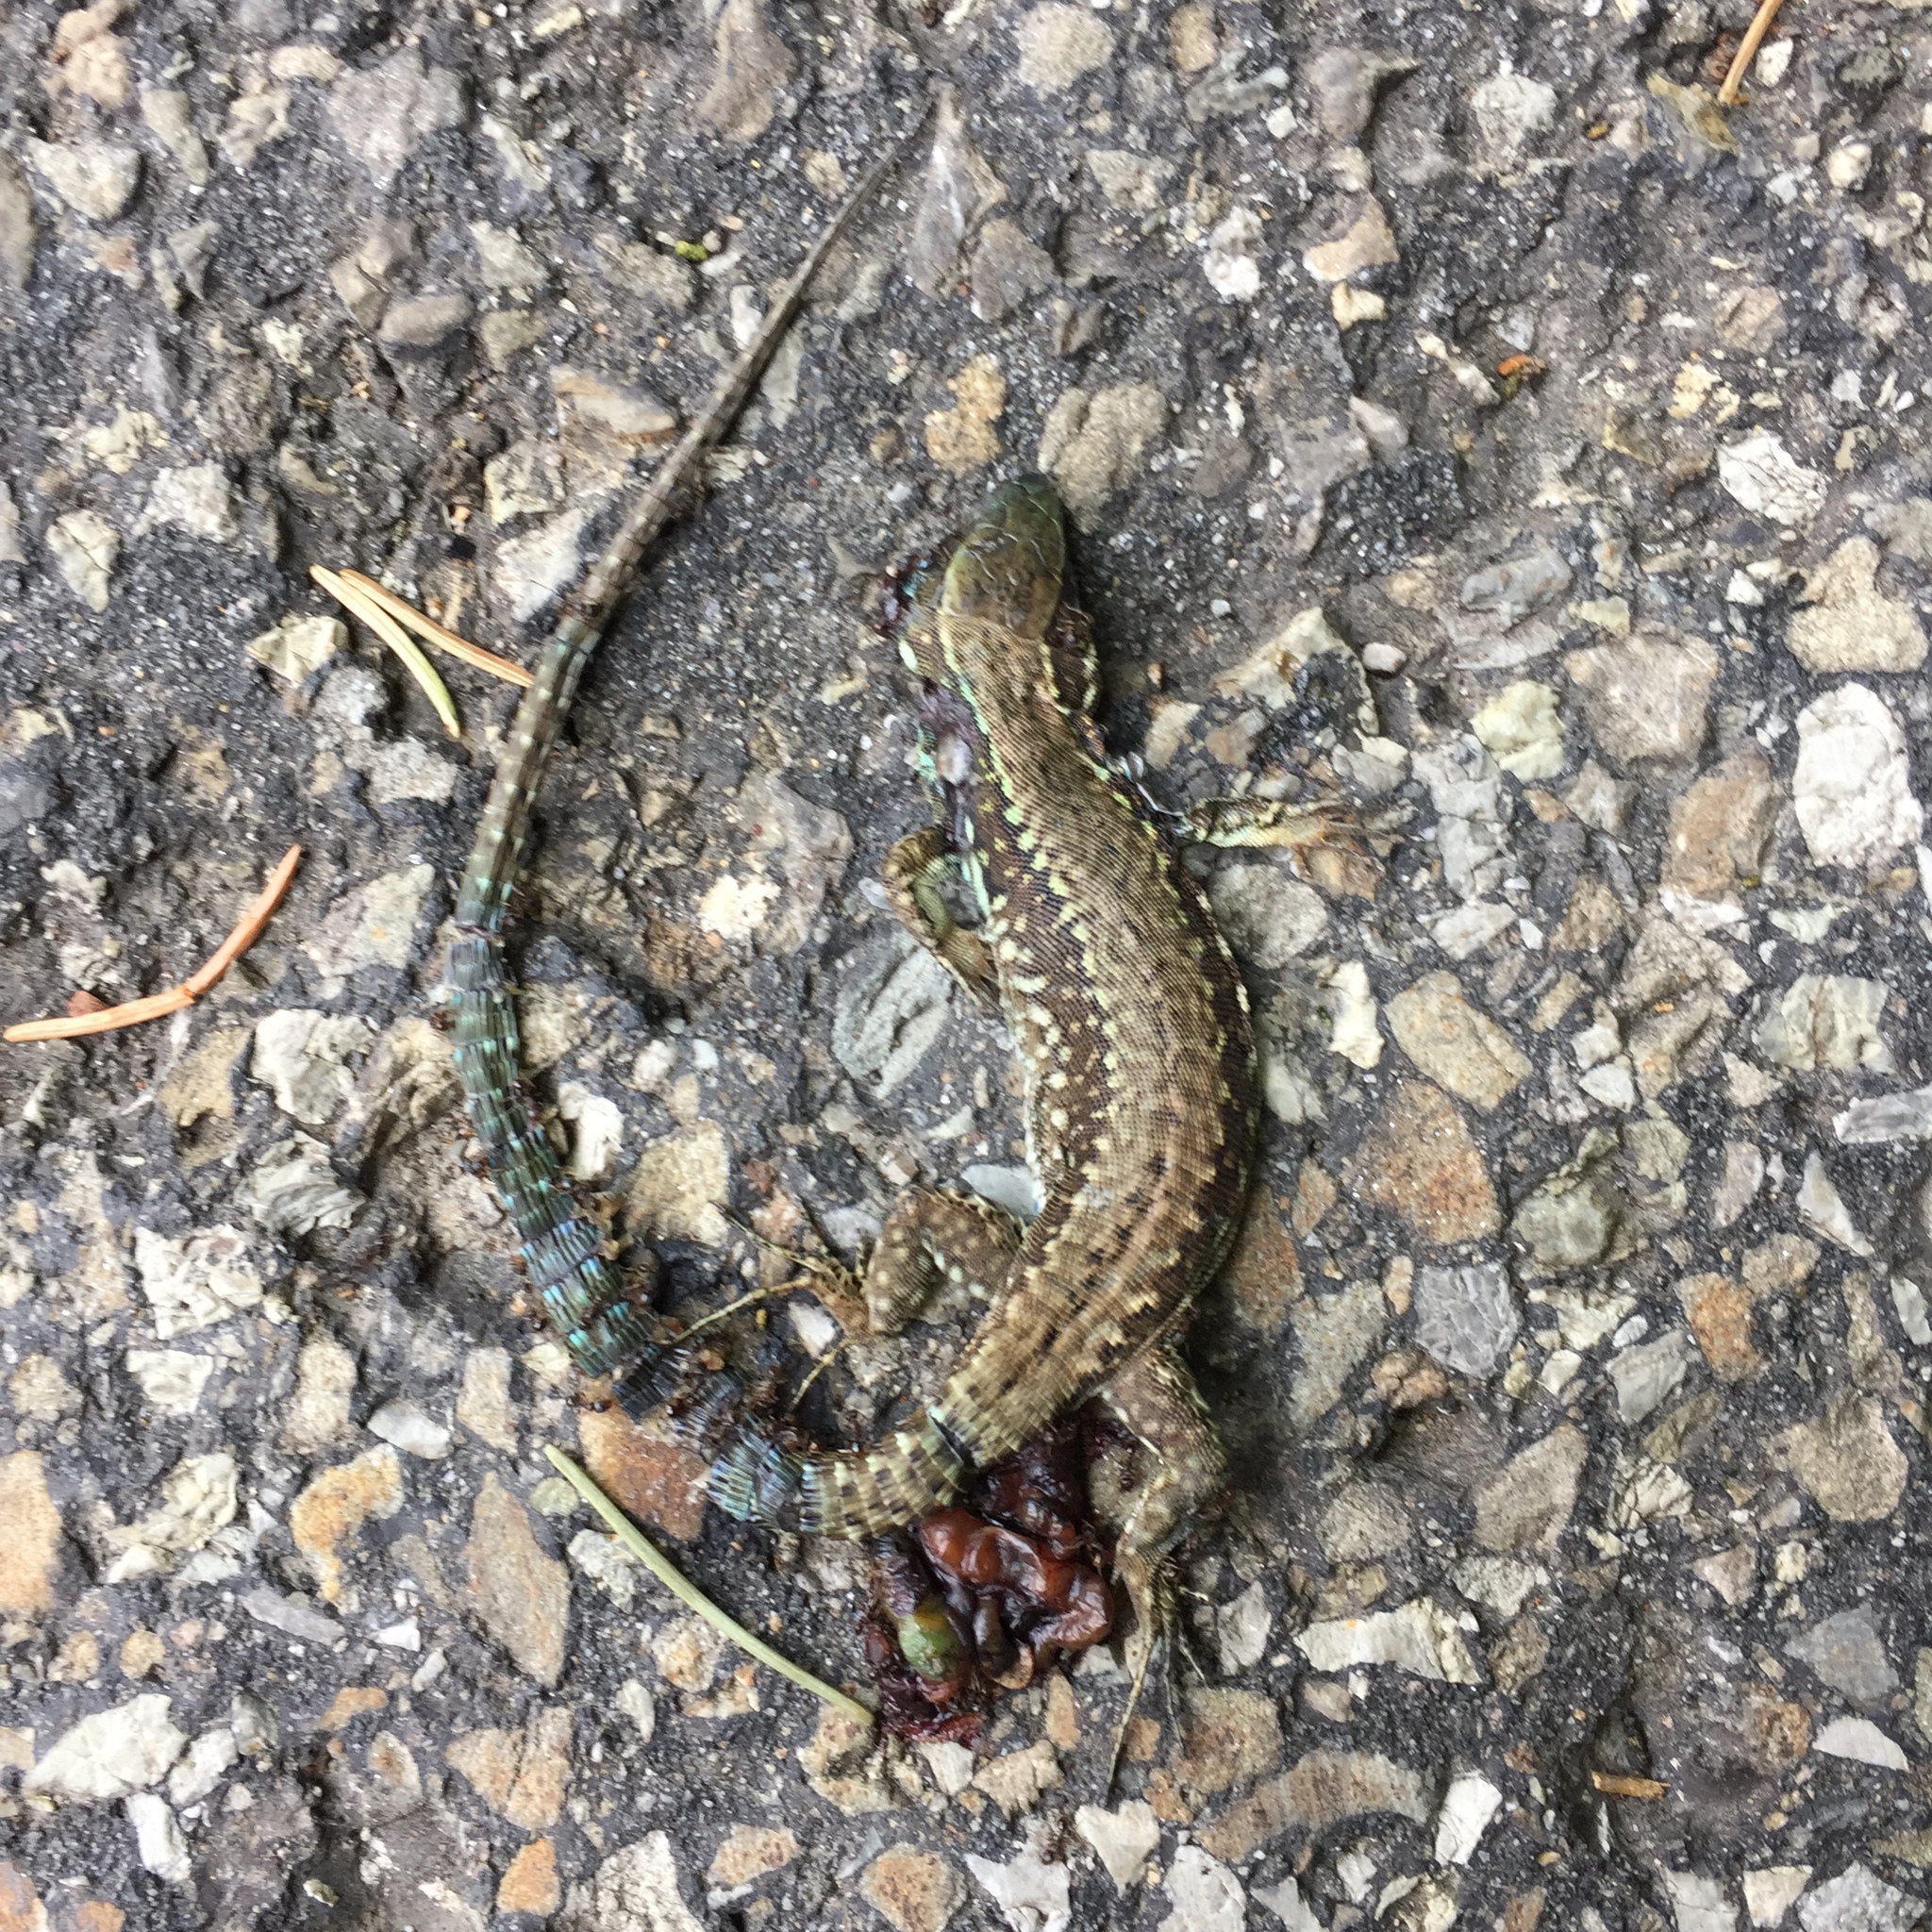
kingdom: Animalia
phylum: Chordata
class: Squamata
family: Lacertidae
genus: Podarcis
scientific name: Podarcis muralis
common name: Common wall lizard
